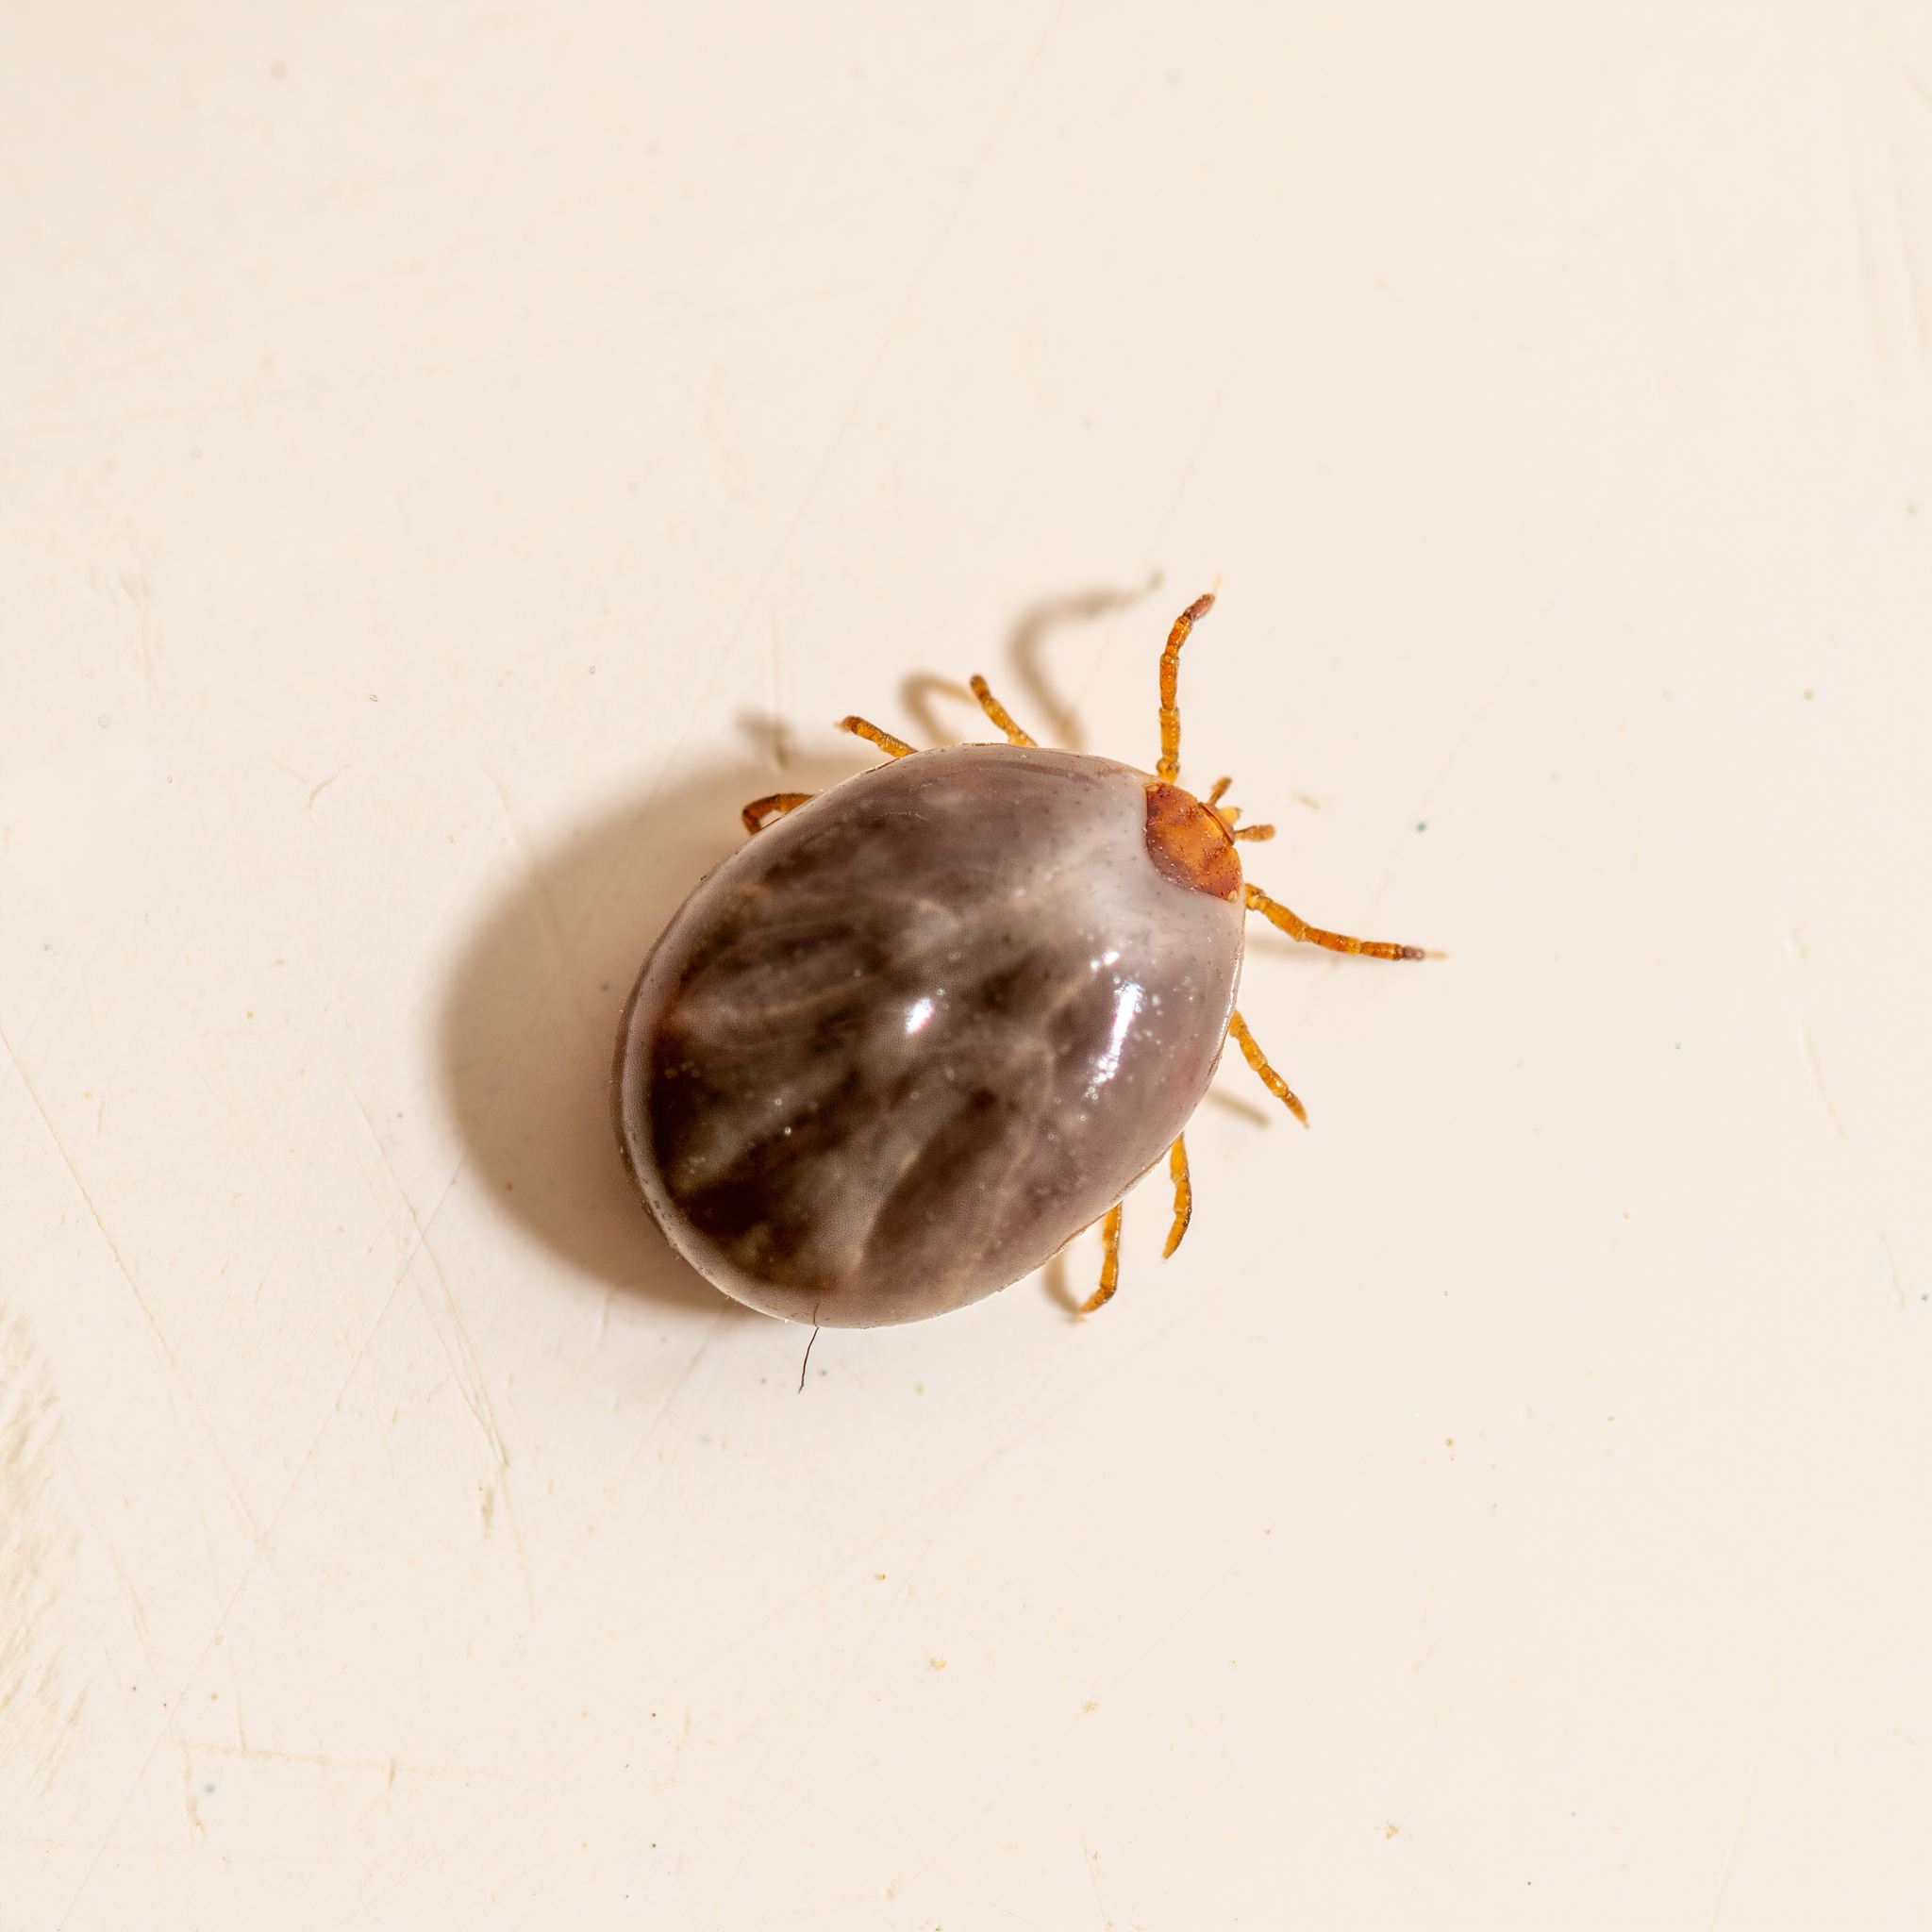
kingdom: Animalia
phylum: Arthropoda
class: Arachnida
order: Ixodida
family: Ixodidae
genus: Amblyomma
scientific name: Amblyomma americanum
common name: Lone star tick
